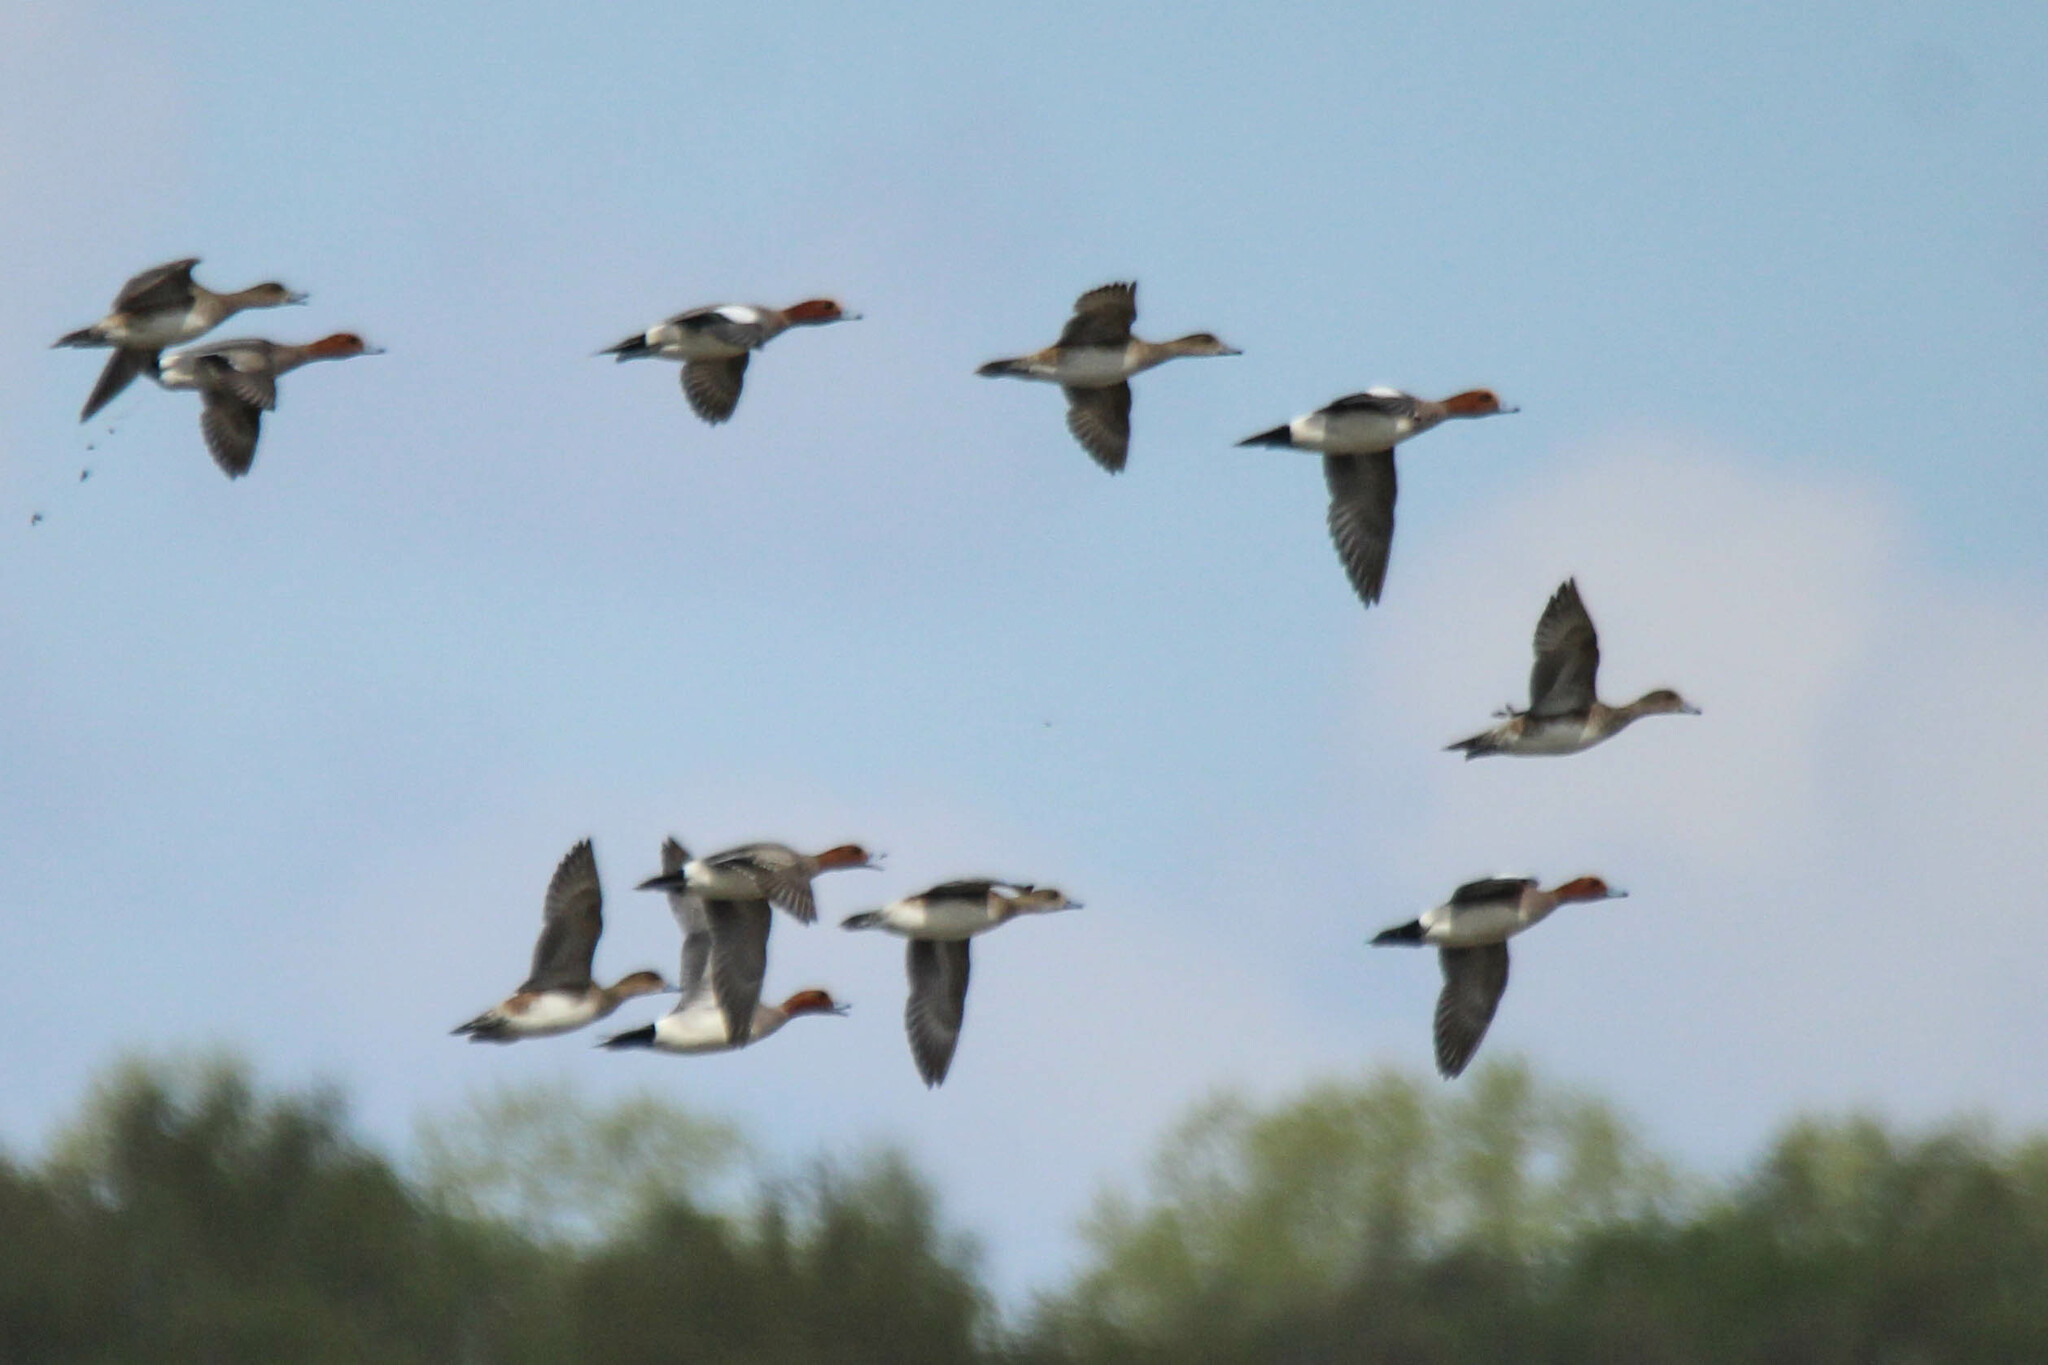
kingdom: Animalia
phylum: Chordata
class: Aves
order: Anseriformes
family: Anatidae
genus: Mareca
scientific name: Mareca penelope
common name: Eurasian wigeon
